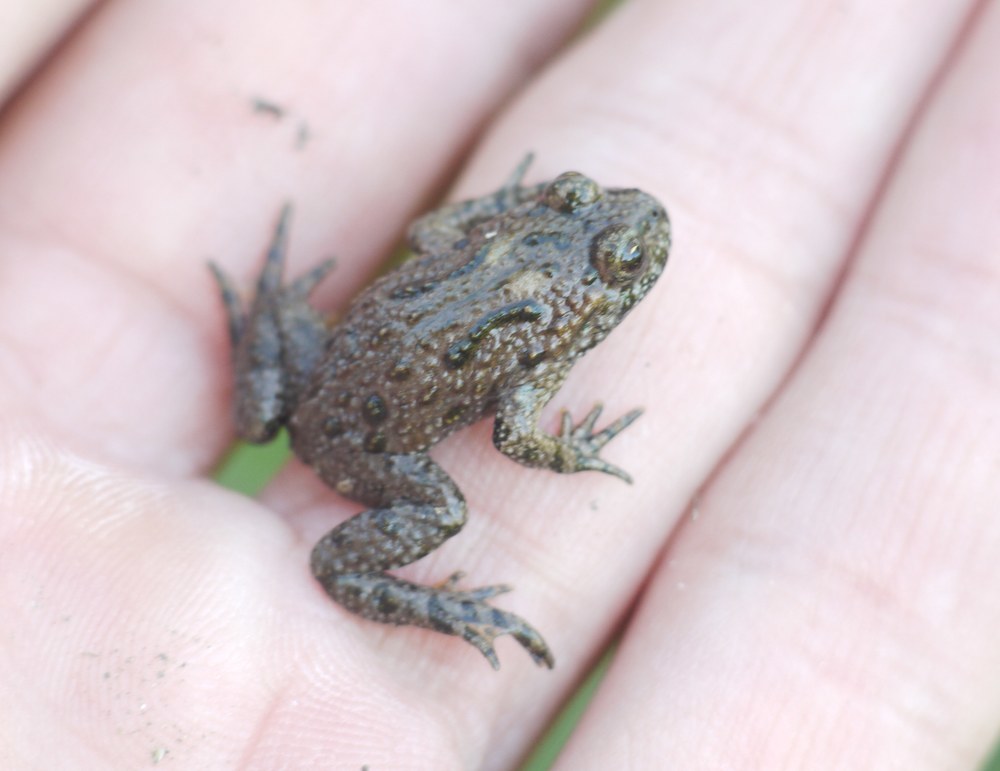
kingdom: Animalia
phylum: Chordata
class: Amphibia
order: Anura
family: Bombinatoridae
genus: Bombina
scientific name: Bombina bombina
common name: Fire-bellied toad
